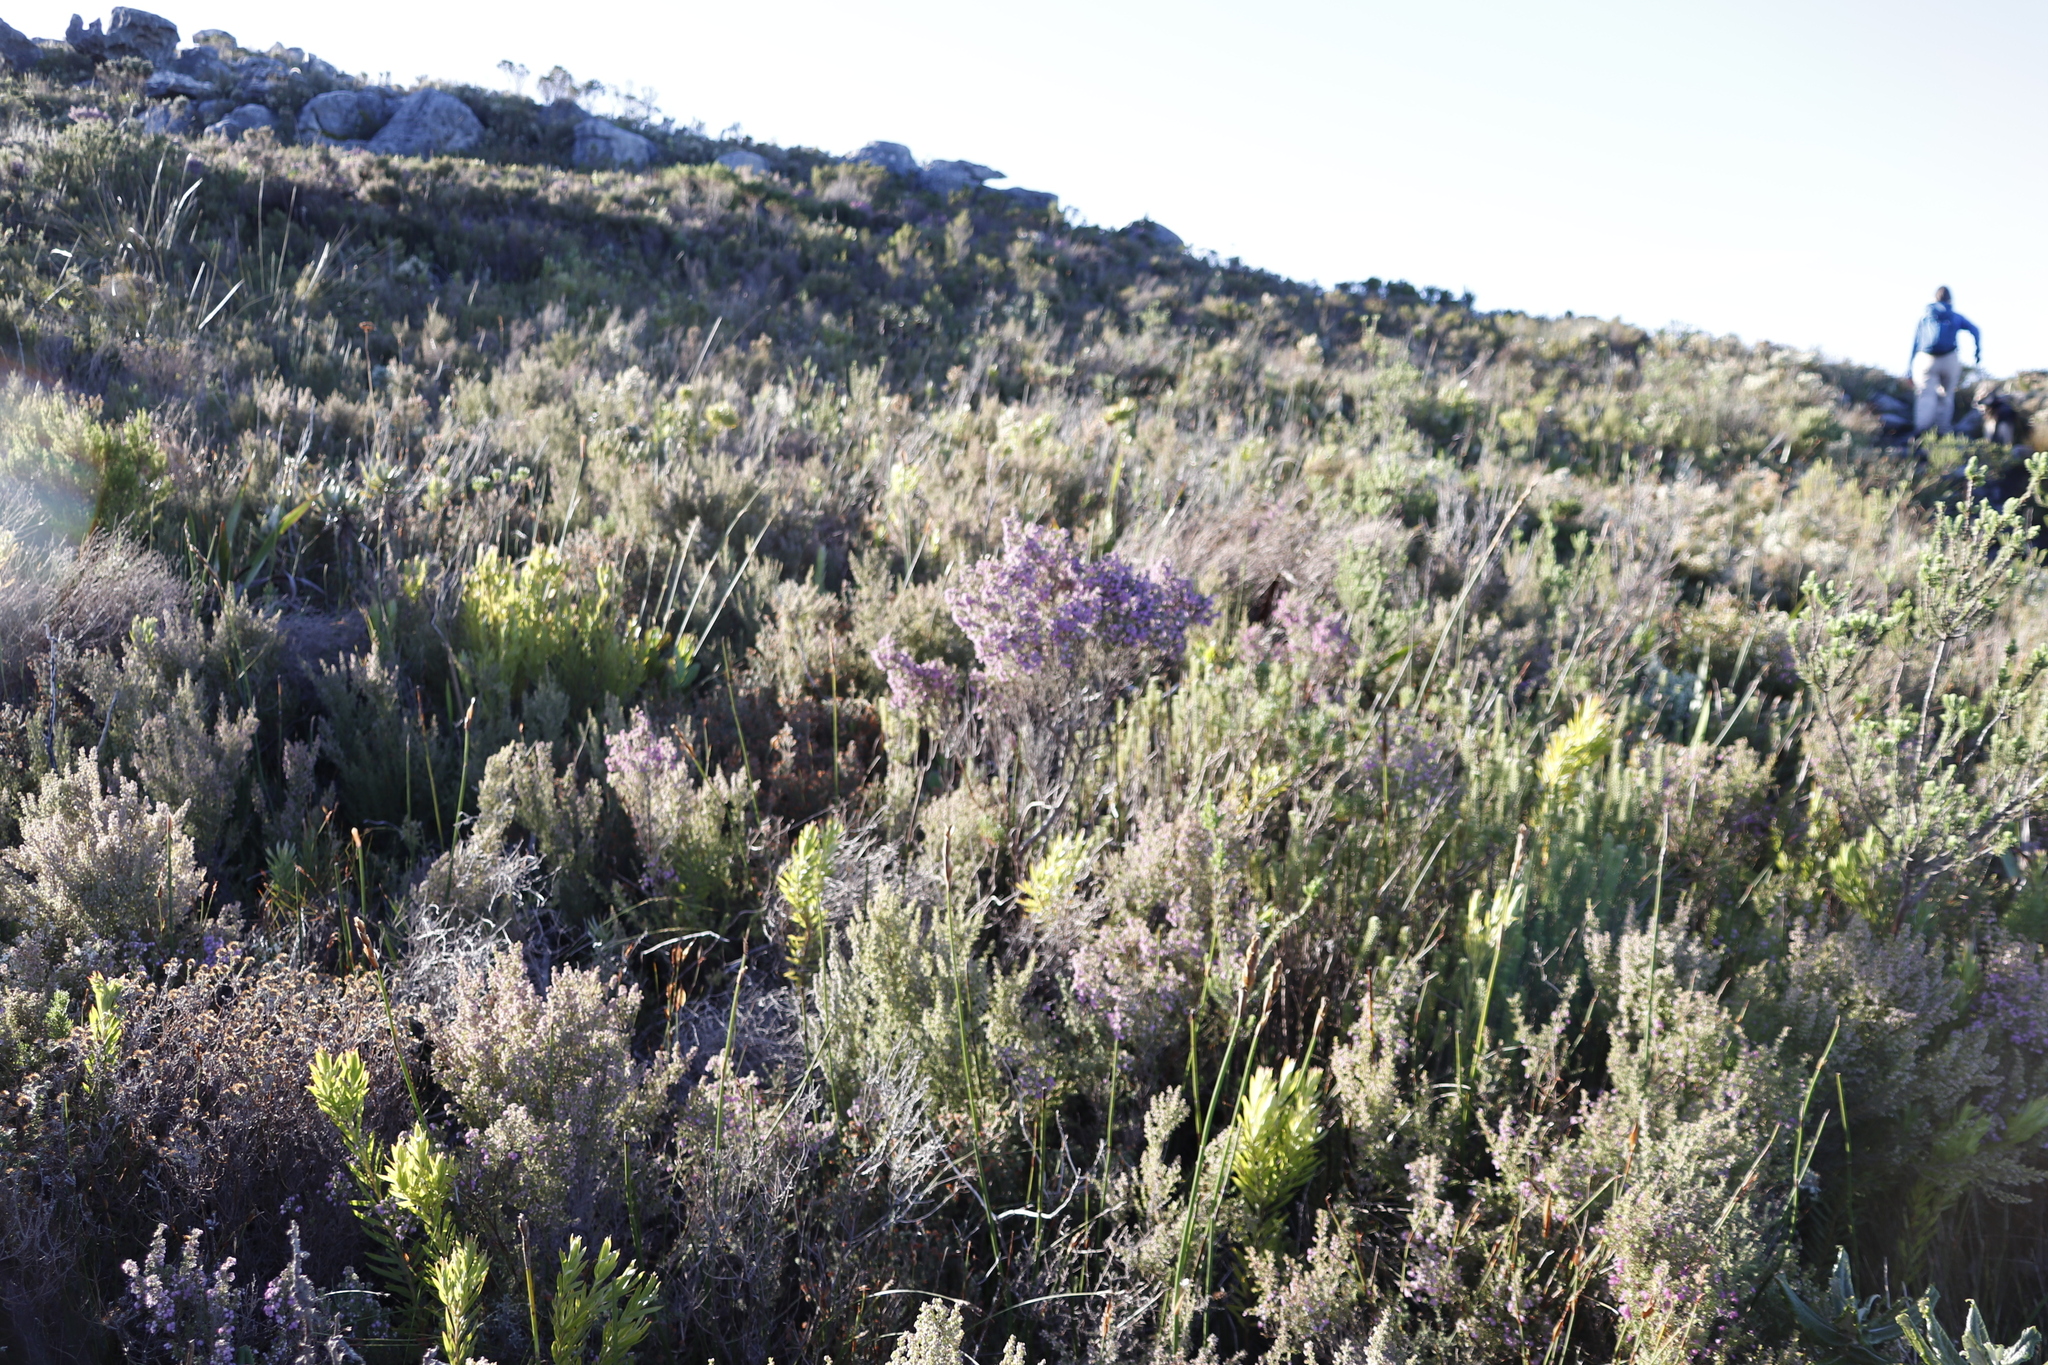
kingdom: Plantae
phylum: Tracheophyta
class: Magnoliopsida
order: Ericales
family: Ericaceae
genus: Erica
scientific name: Erica hirtiflora
